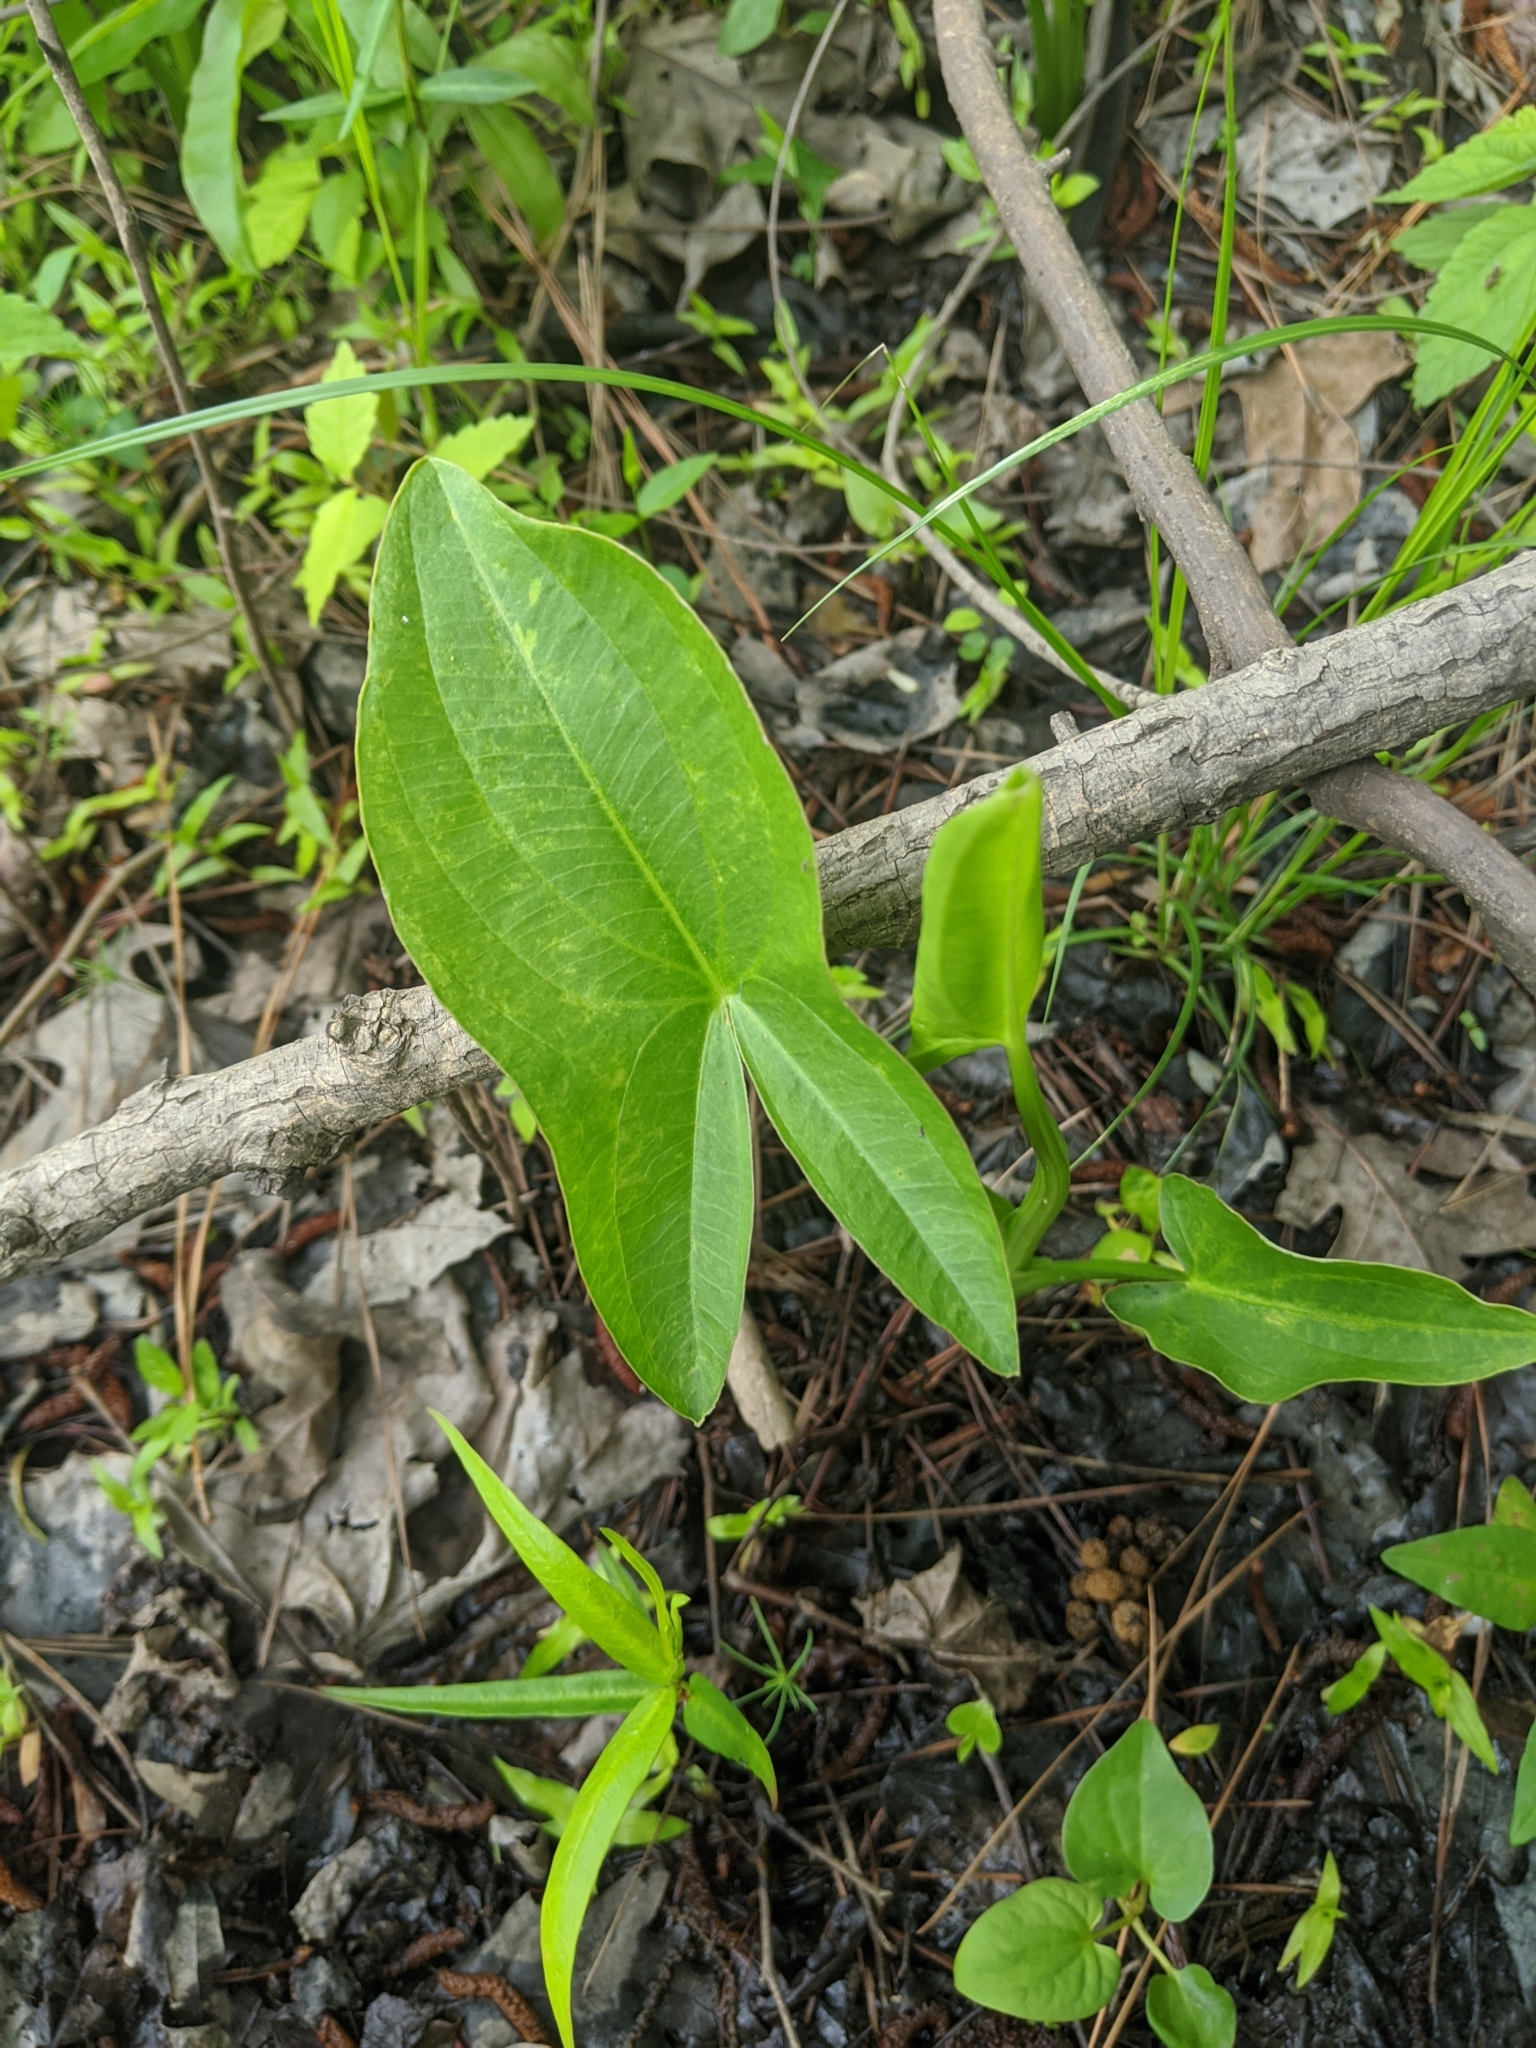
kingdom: Plantae
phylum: Tracheophyta
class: Liliopsida
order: Alismatales
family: Alismataceae
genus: Sagittaria
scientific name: Sagittaria latifolia
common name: Duck-potato
